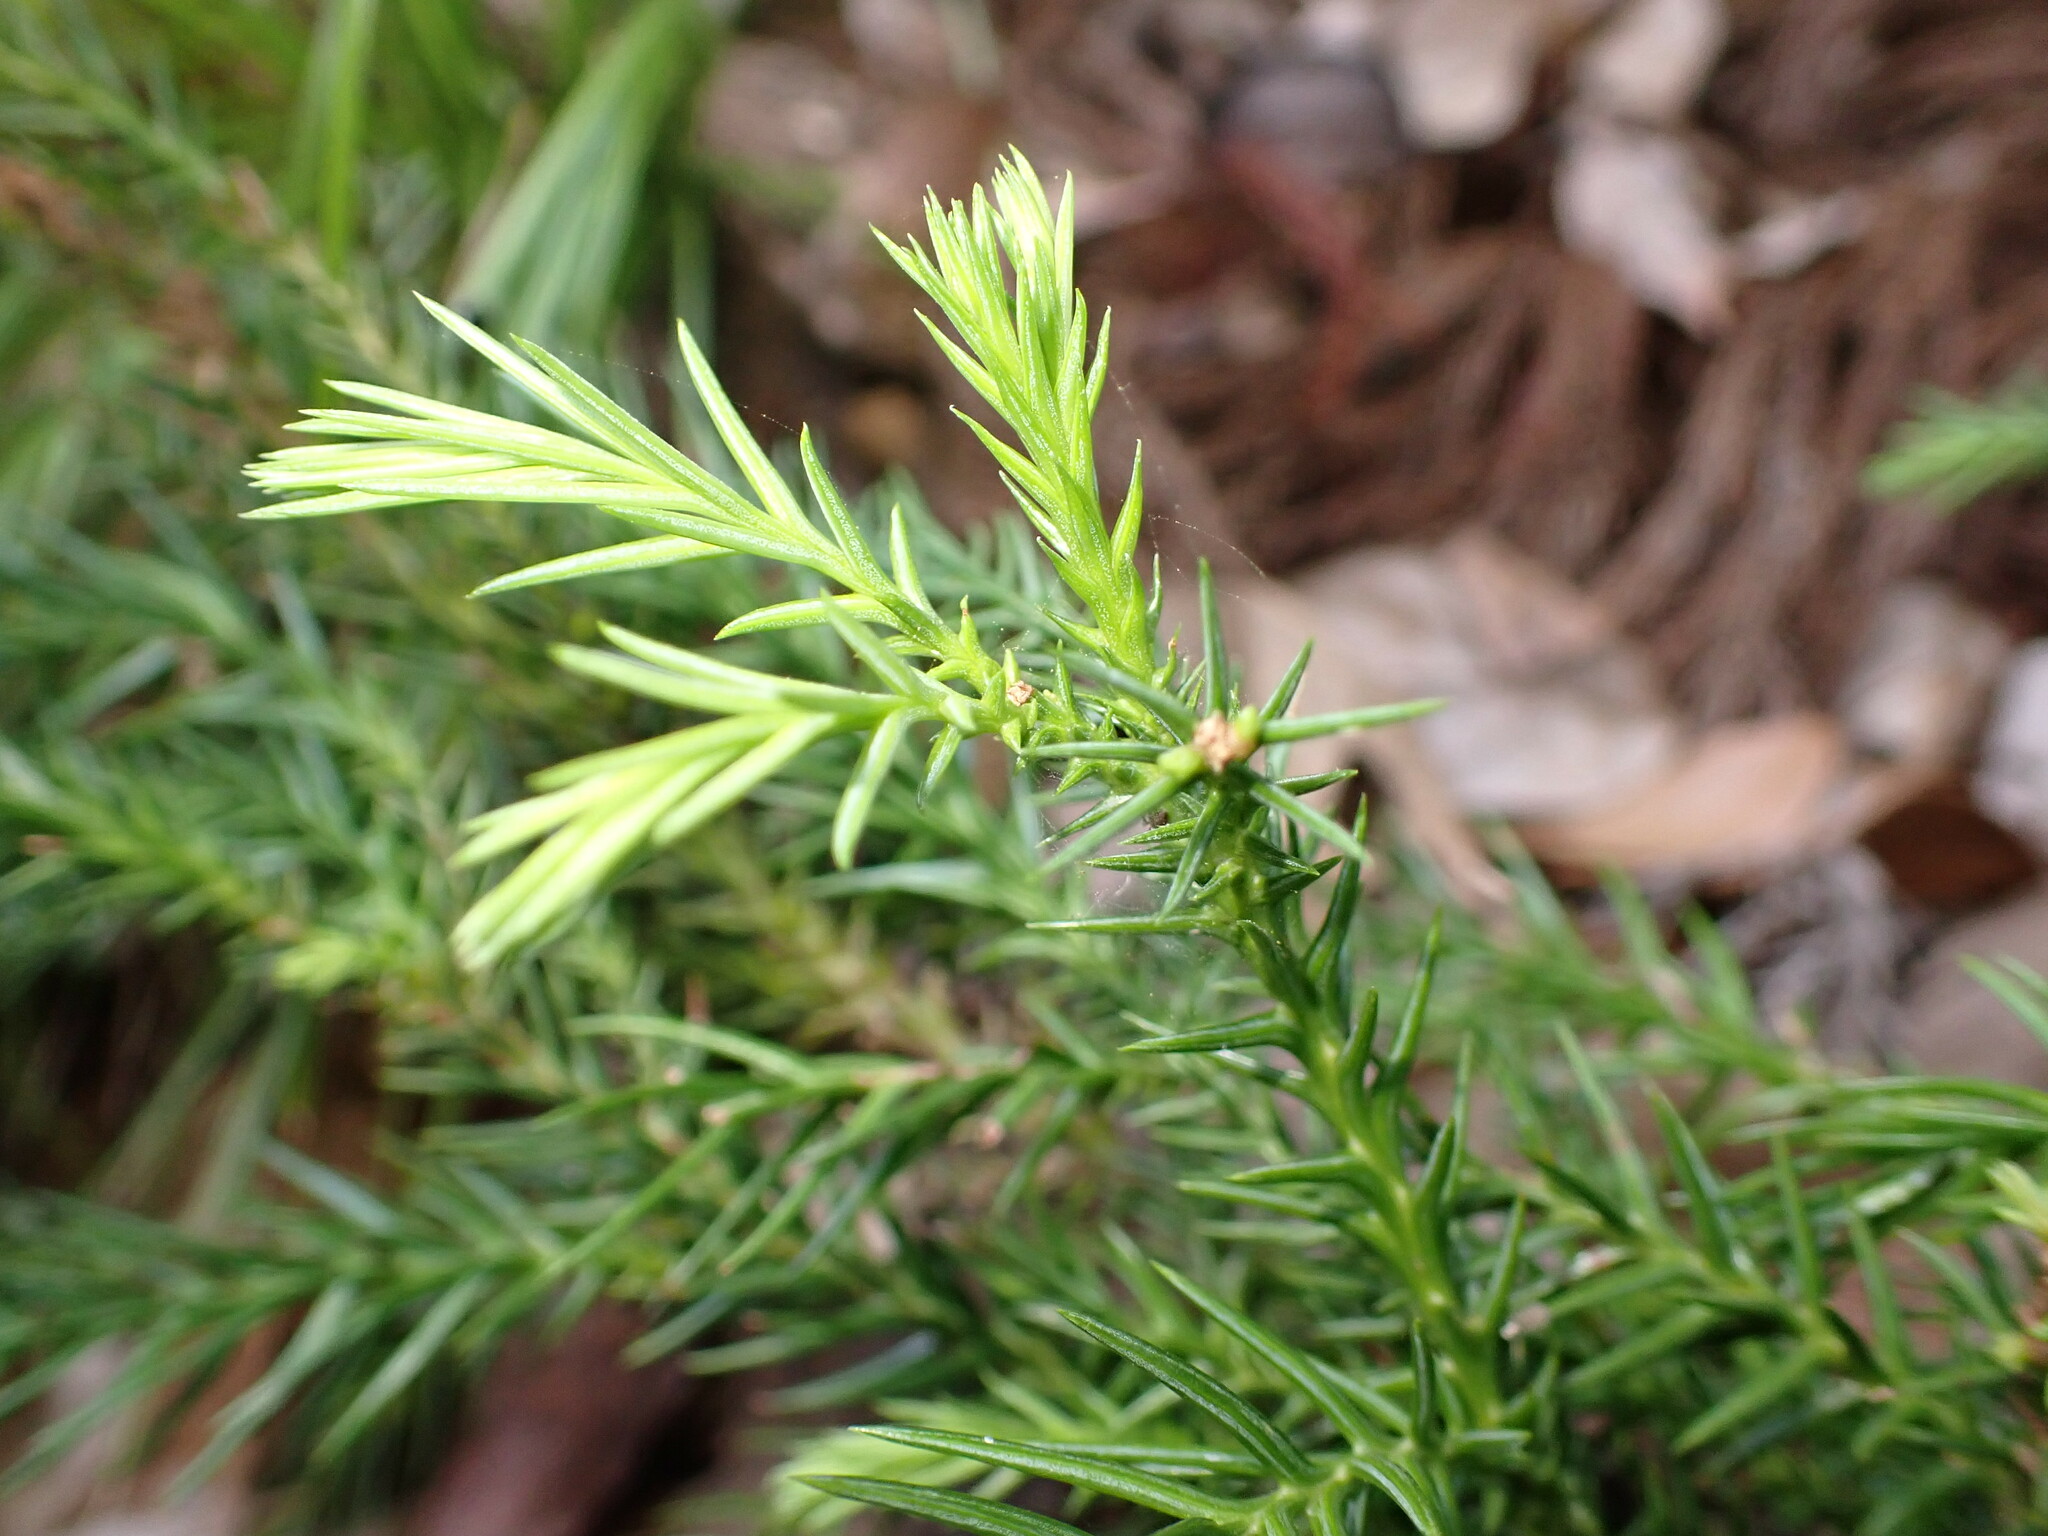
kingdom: Plantae
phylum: Tracheophyta
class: Pinopsida
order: Pinales
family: Cupressaceae
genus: Cryptomeria
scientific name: Cryptomeria japonica
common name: Japanese cedar
